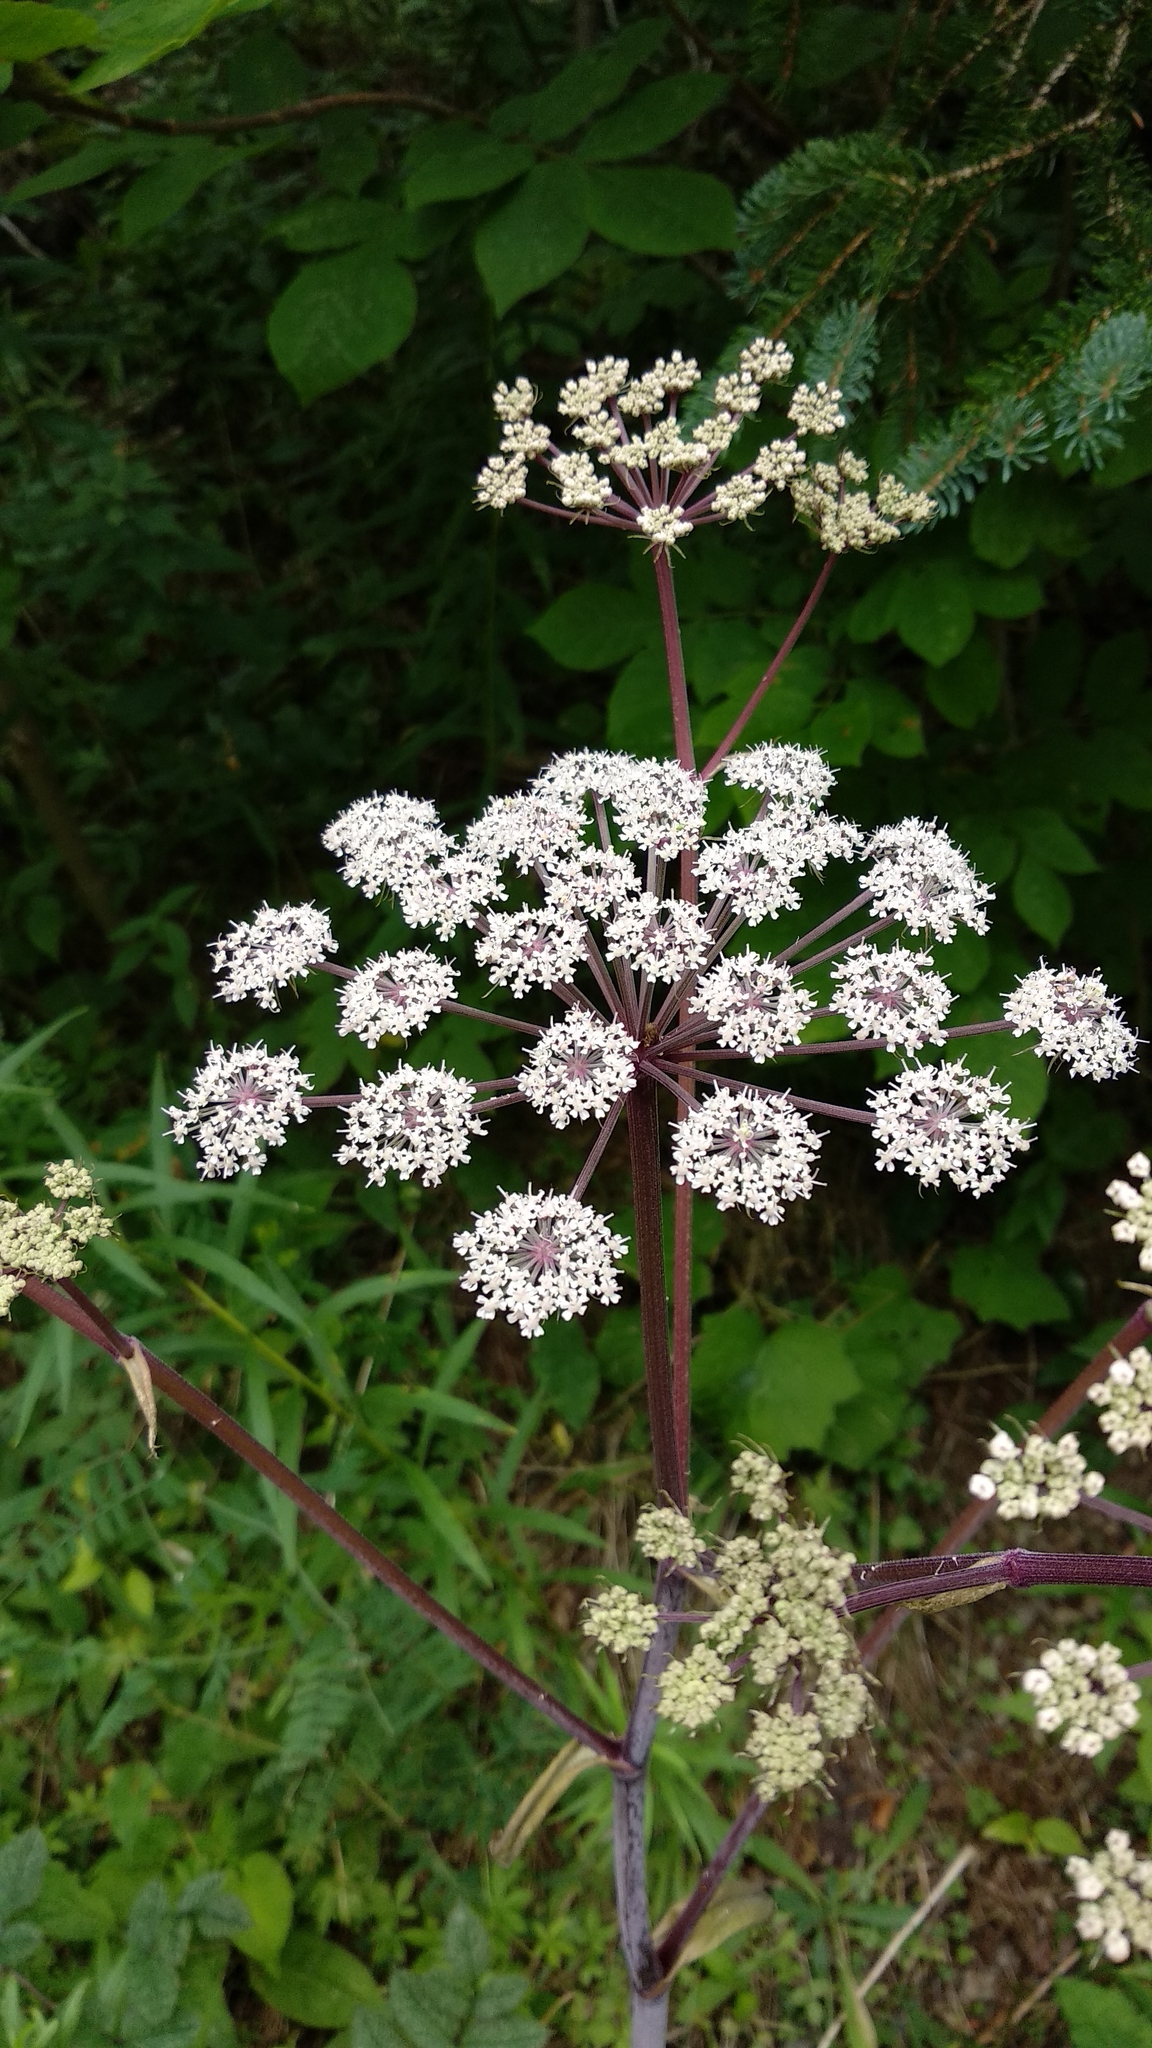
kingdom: Plantae
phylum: Tracheophyta
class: Magnoliopsida
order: Apiales
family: Apiaceae
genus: Angelica
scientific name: Angelica sylvestris
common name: Wild angelica
